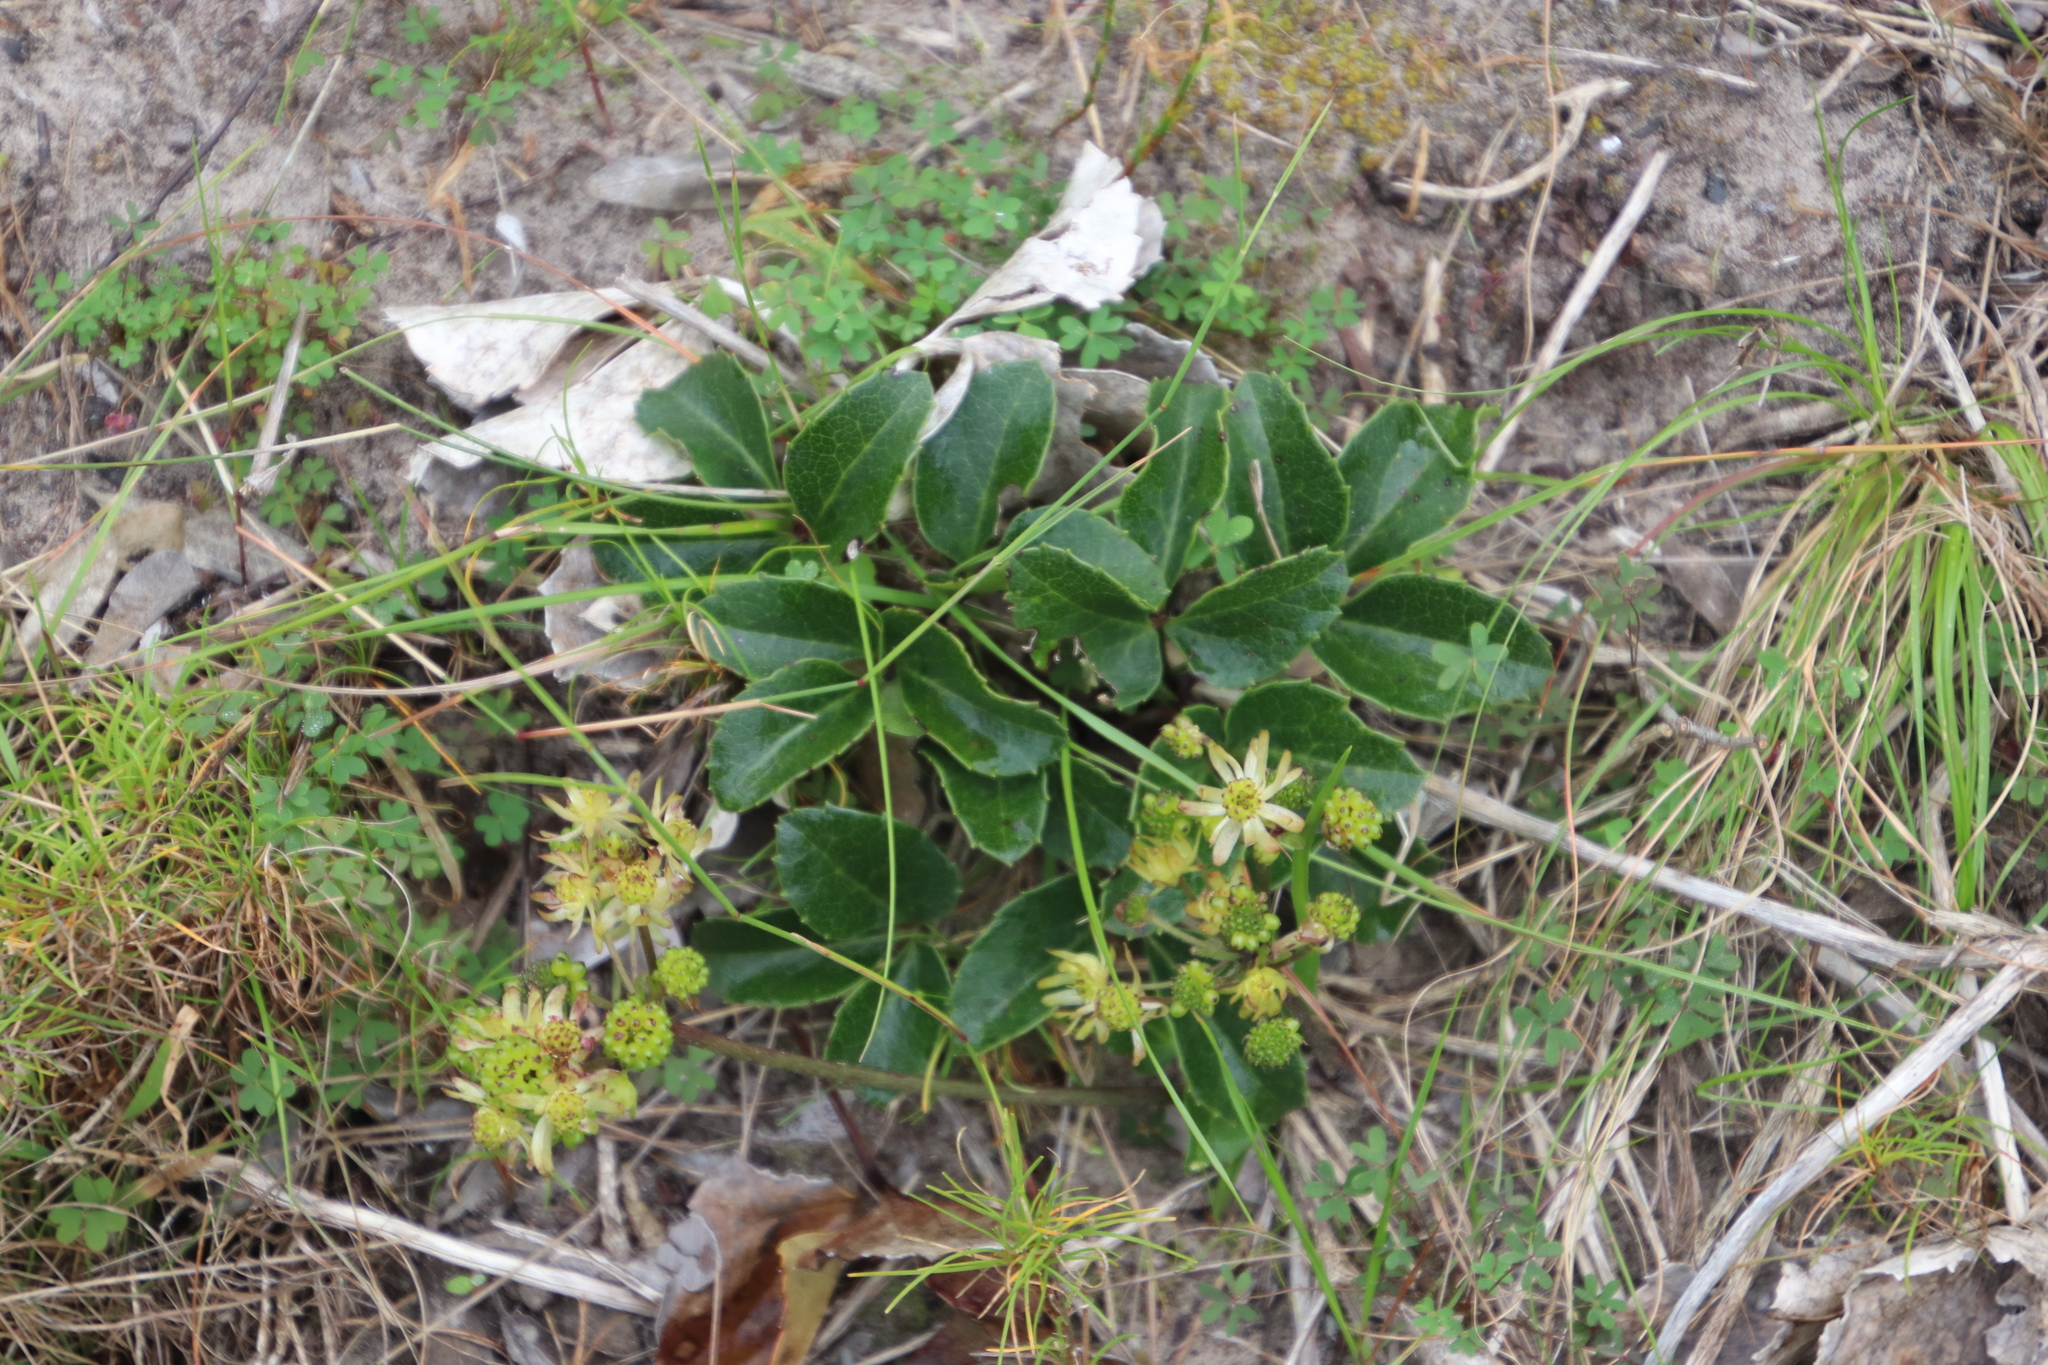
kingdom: Plantae
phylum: Tracheophyta
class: Magnoliopsida
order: Ranunculales
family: Ranunculaceae
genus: Knowltonia
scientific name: Knowltonia vesicatoria
